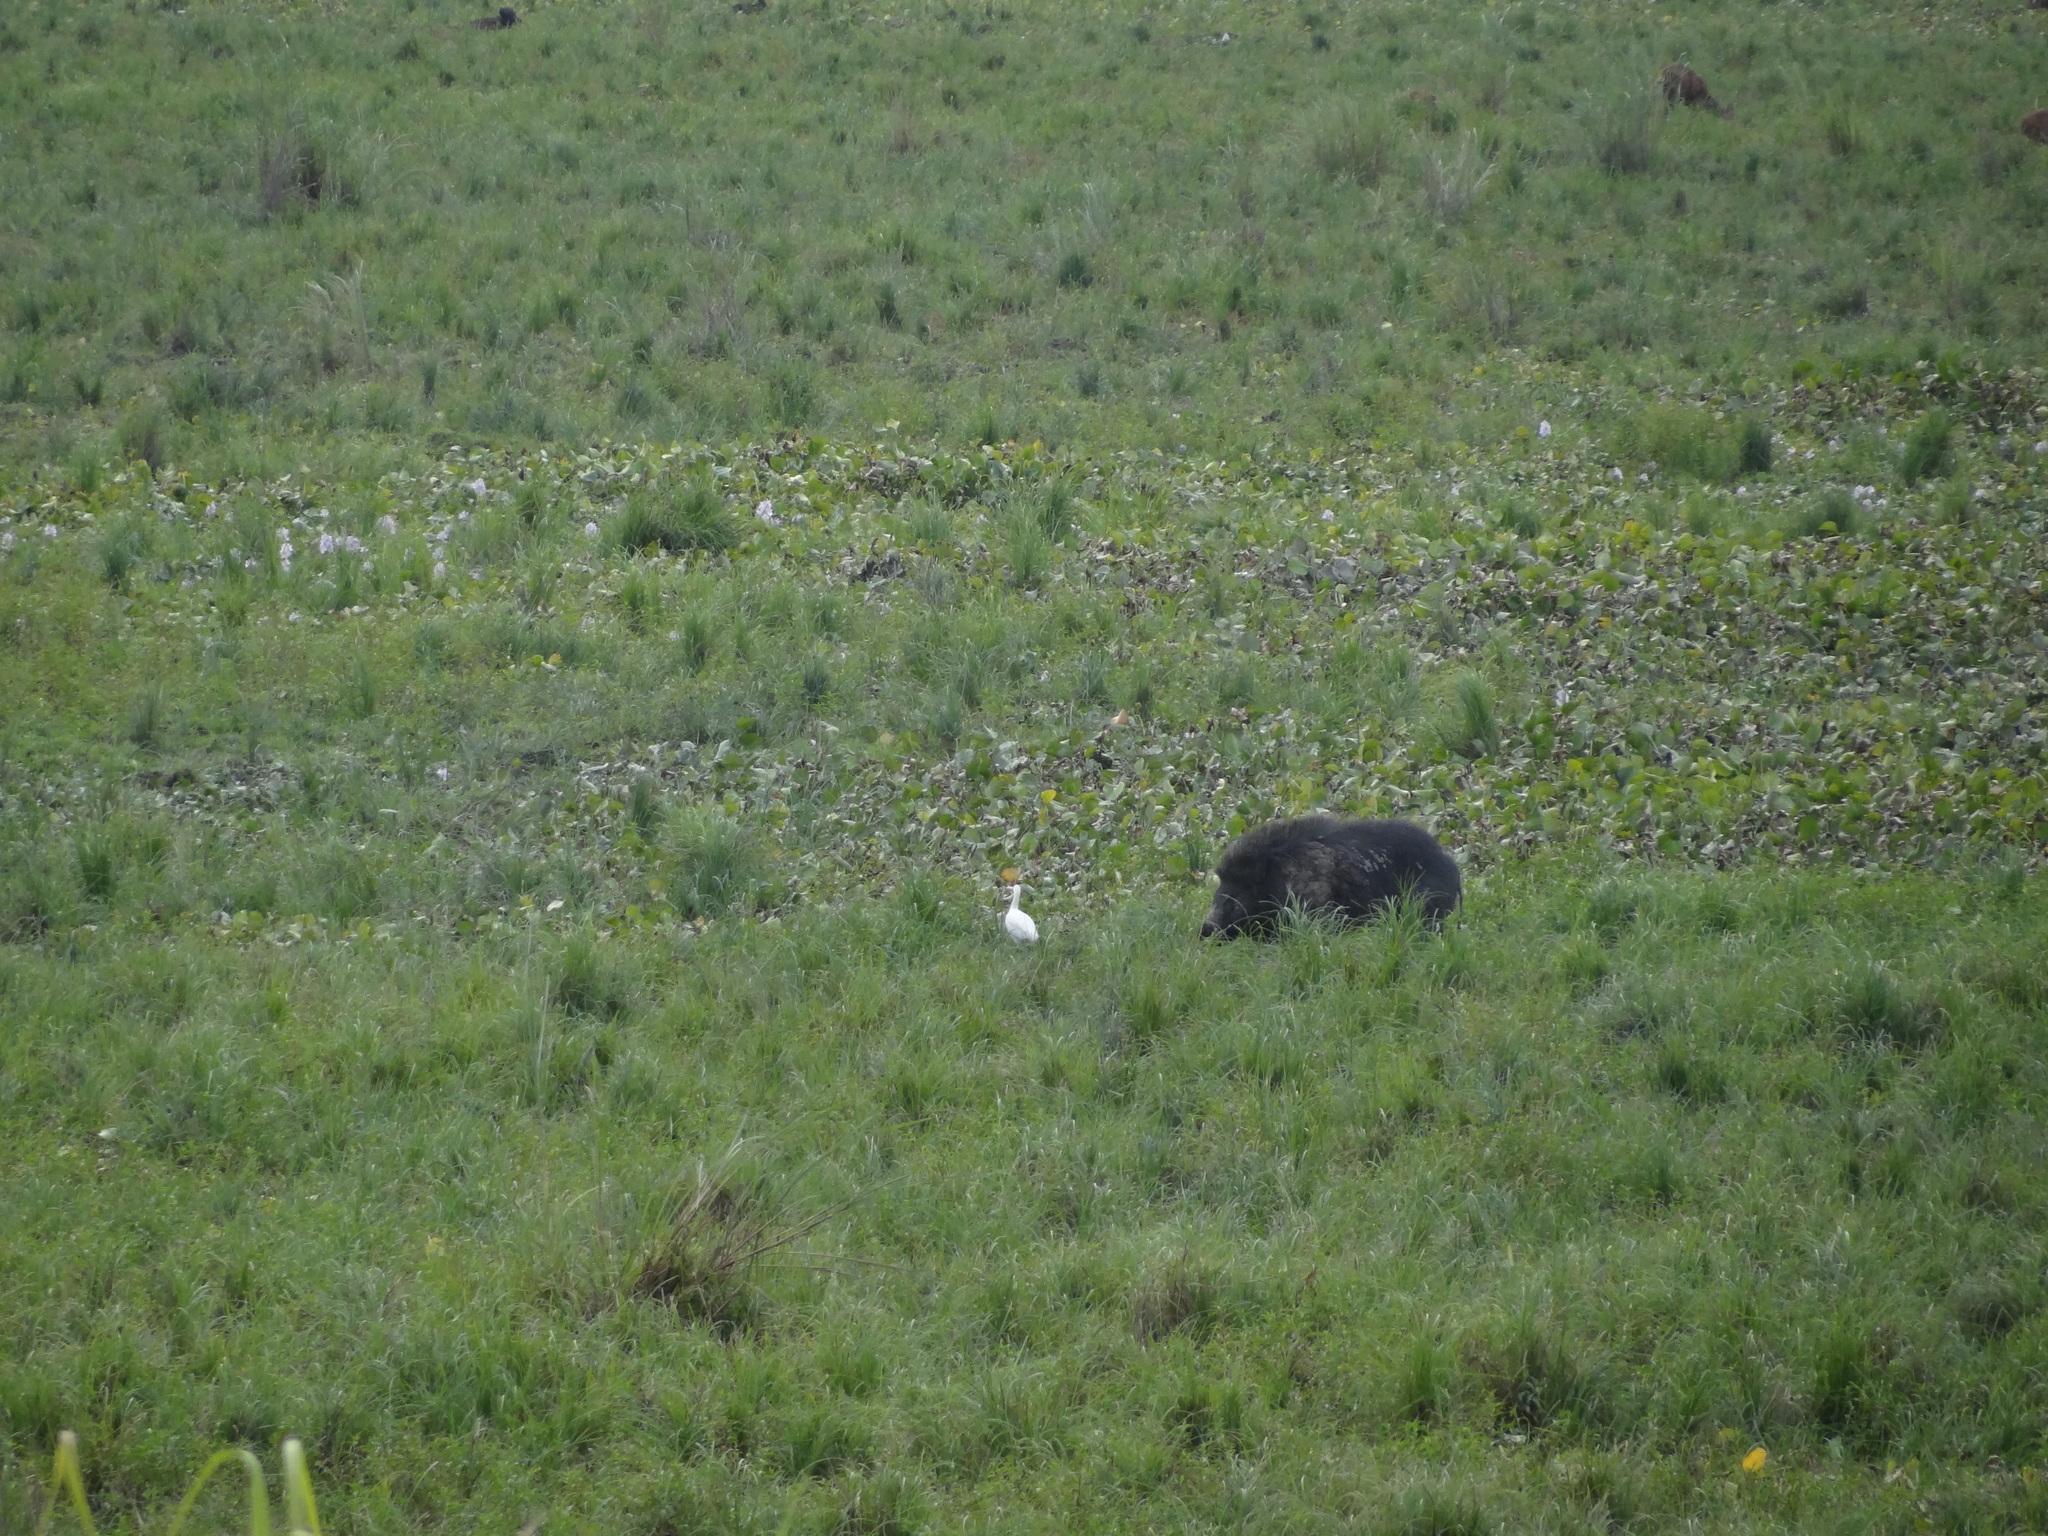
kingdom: Animalia
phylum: Chordata
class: Mammalia
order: Artiodactyla
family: Suidae
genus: Sus
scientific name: Sus scrofa
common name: Wild boar
